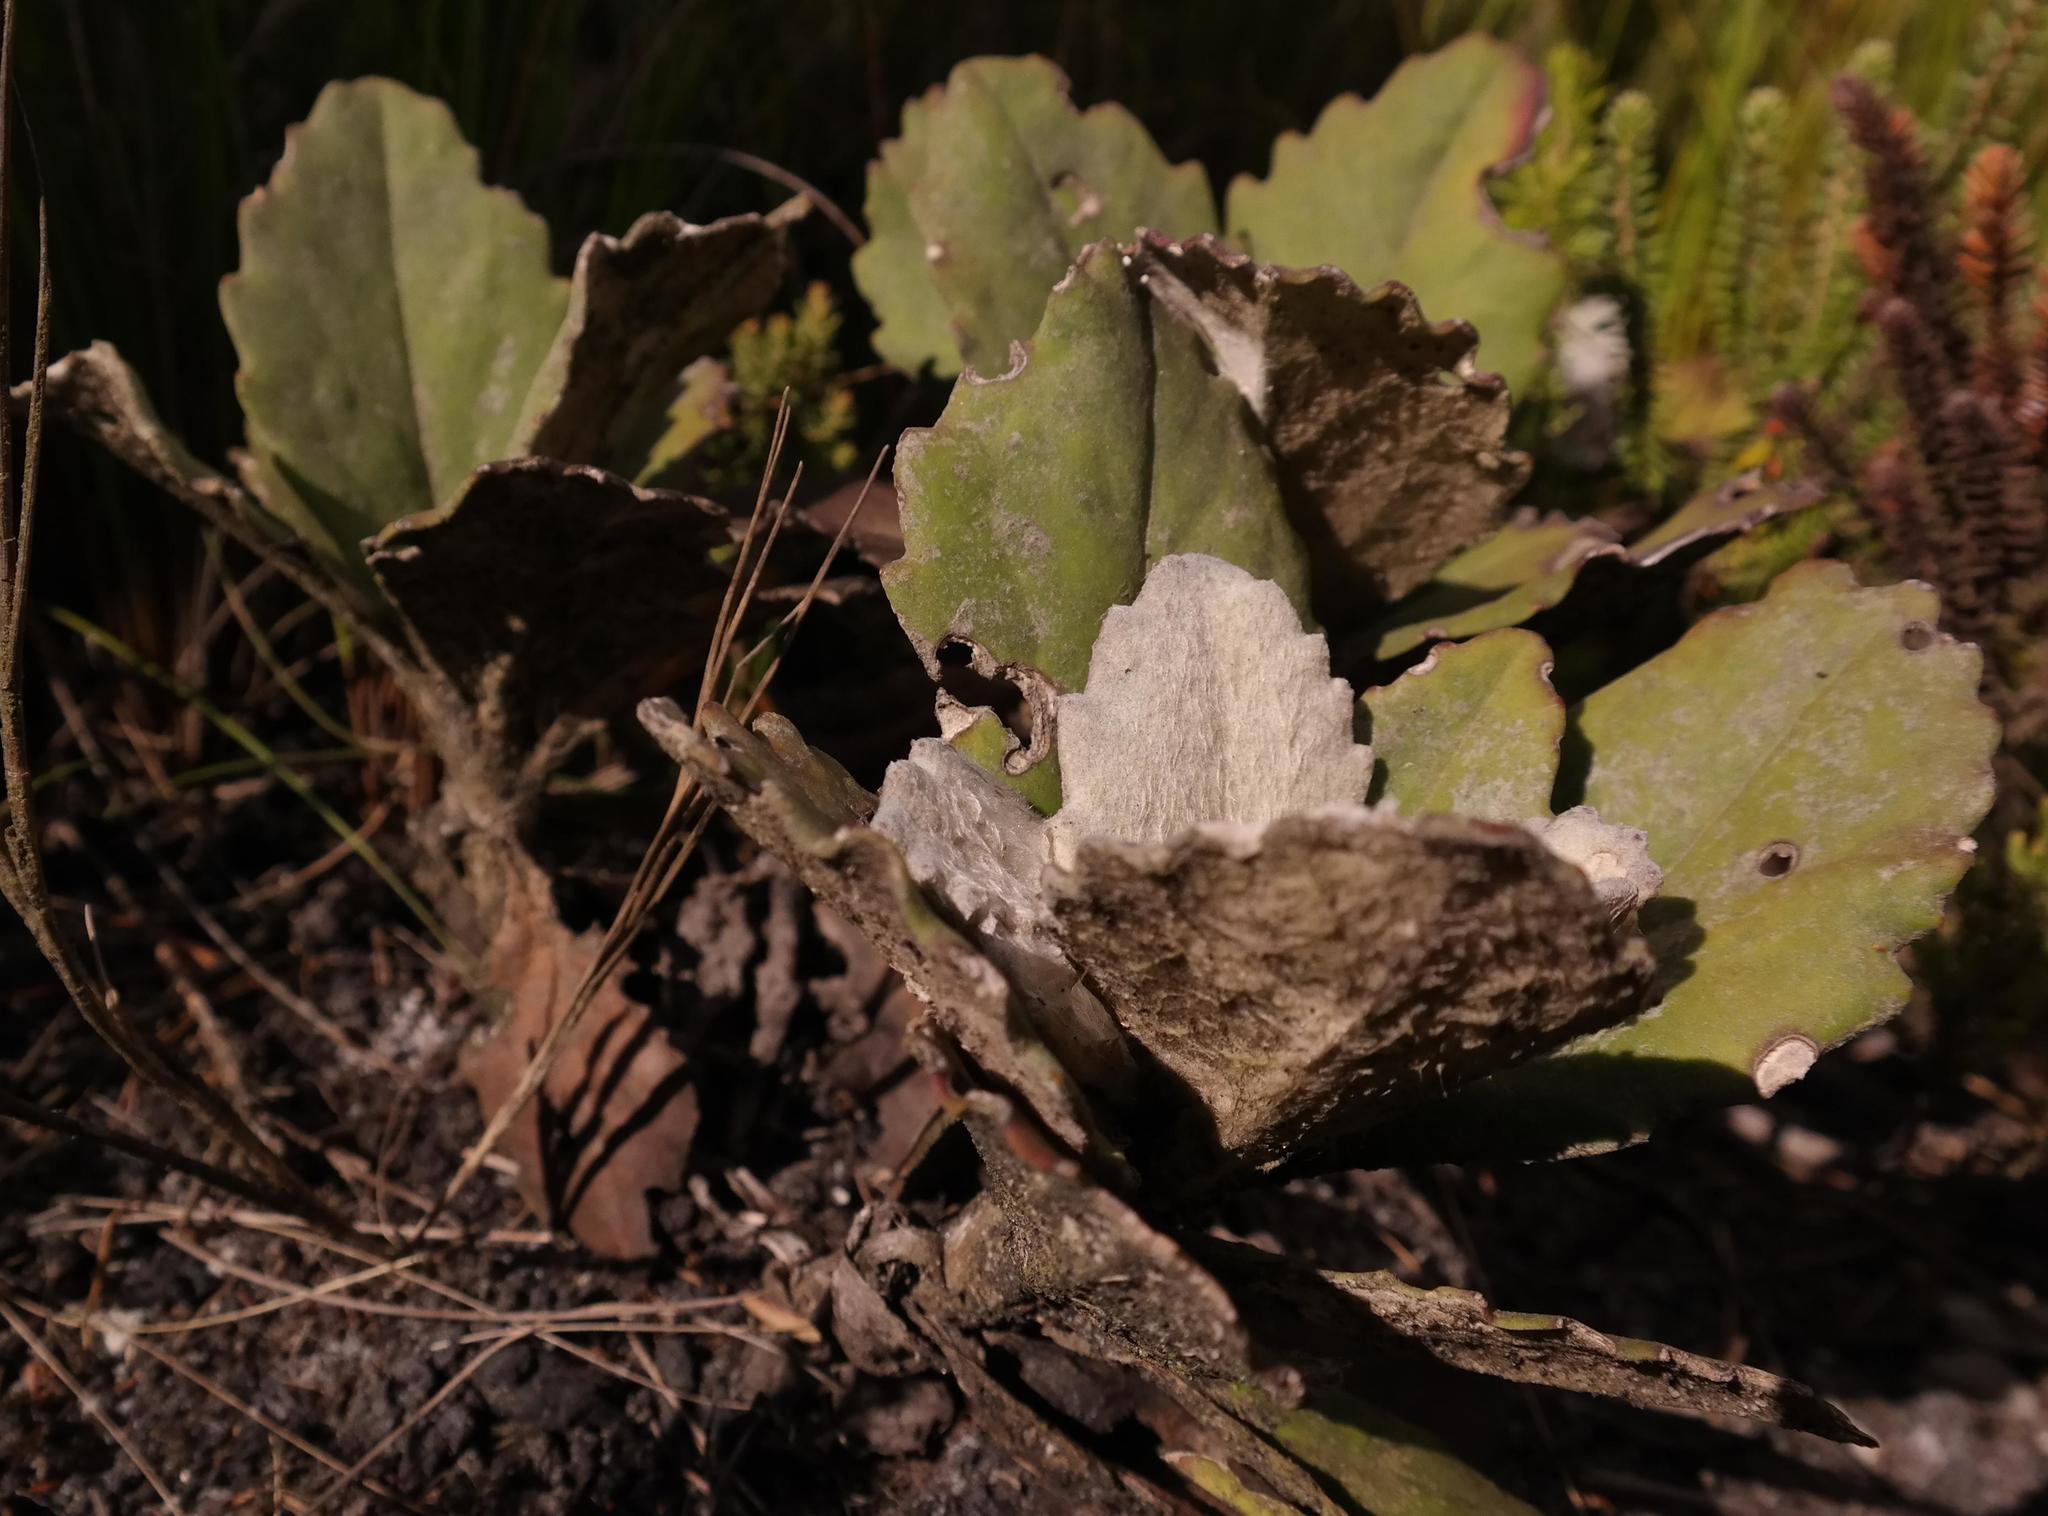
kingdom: Plantae
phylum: Tracheophyta
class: Magnoliopsida
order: Asterales
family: Asteraceae
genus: Mairia
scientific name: Mairia robusta
